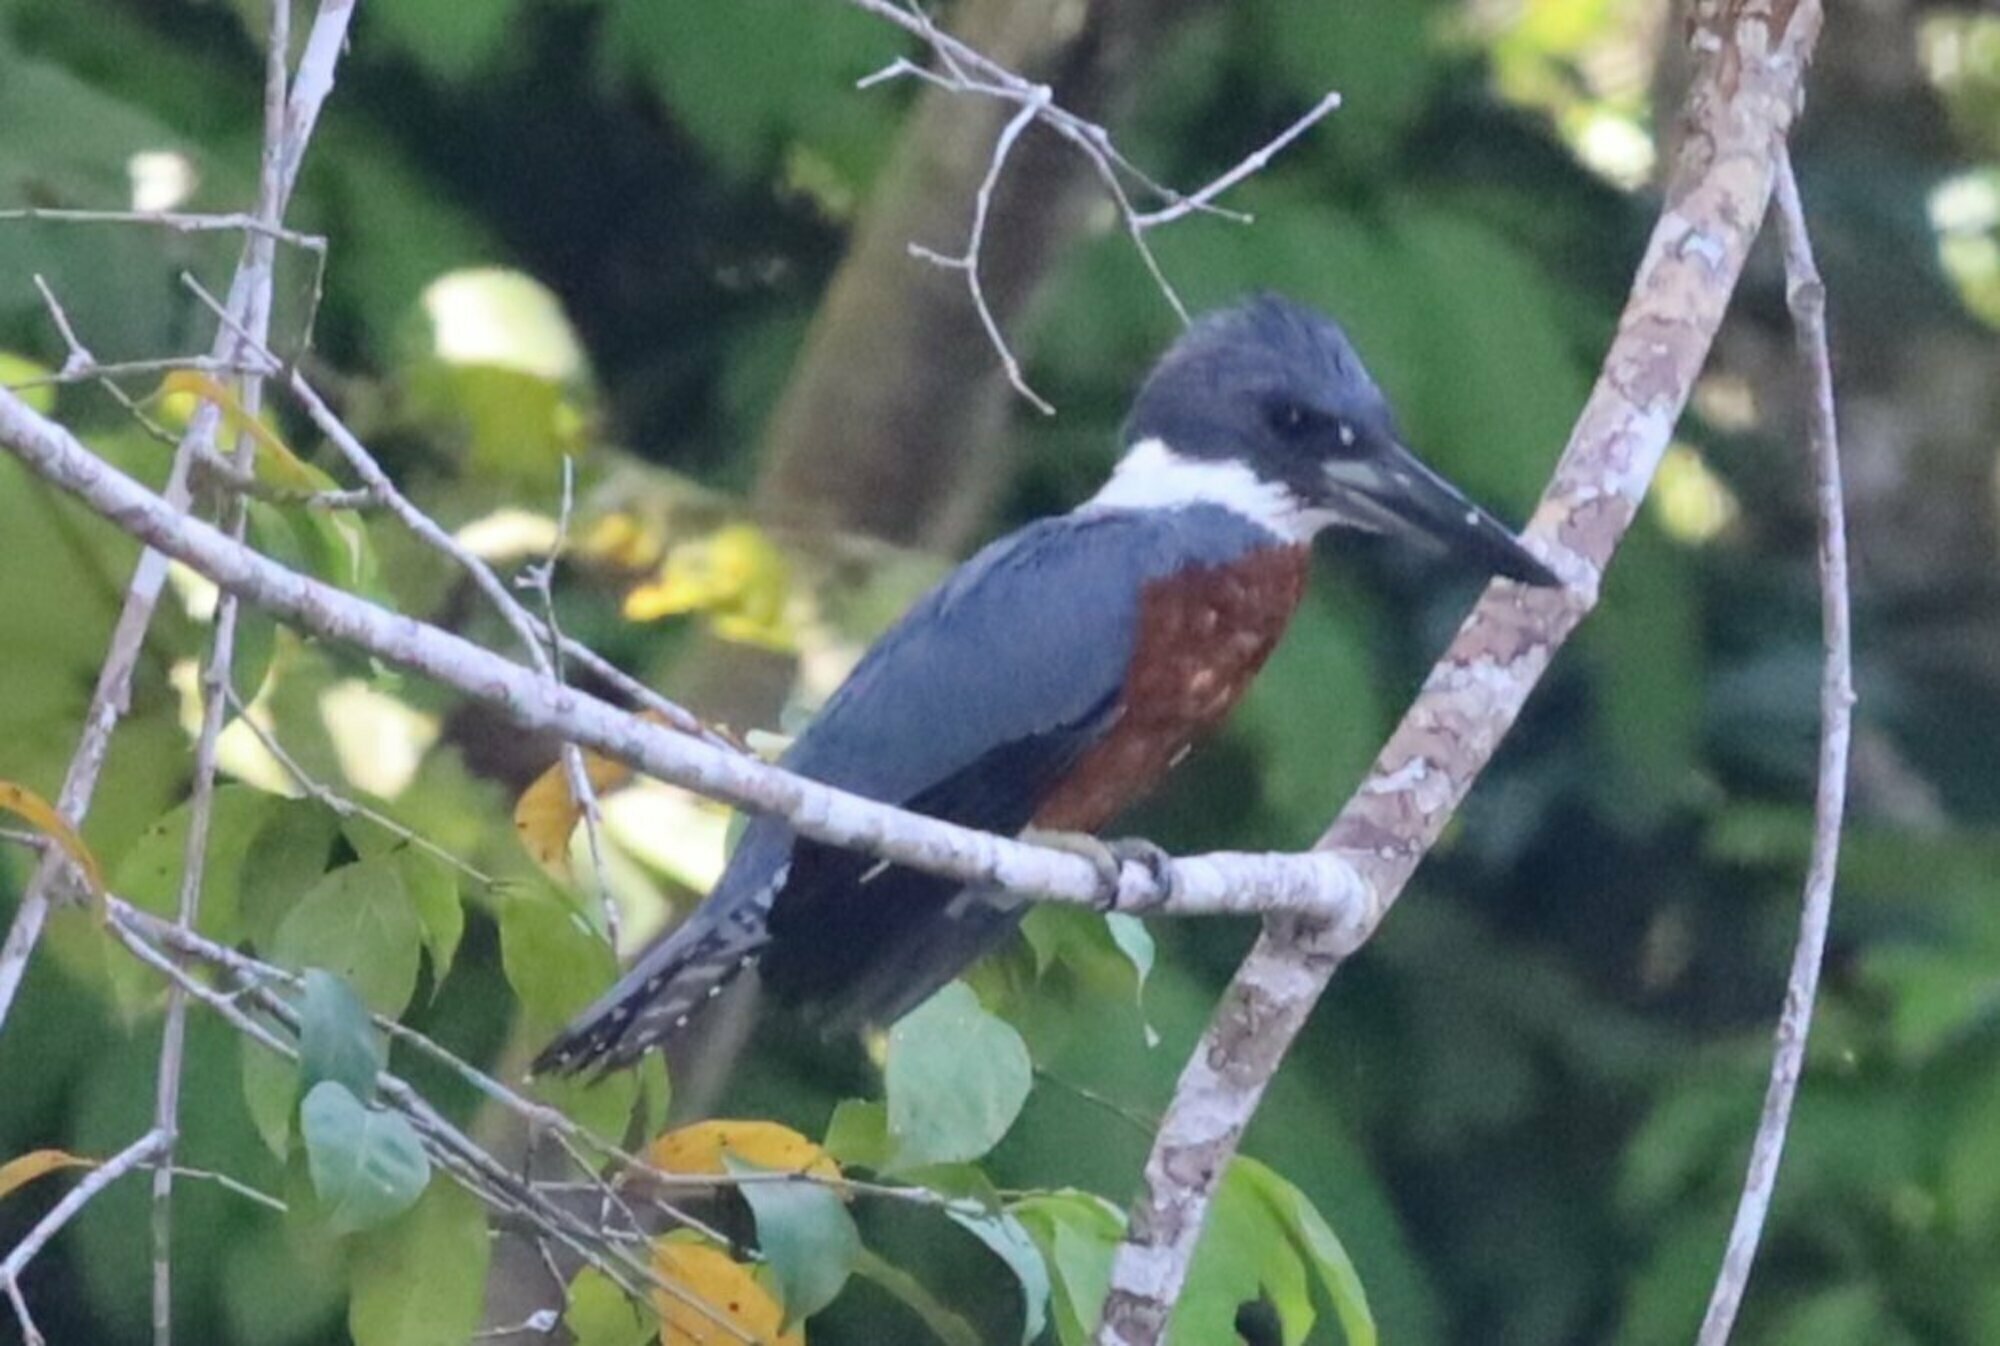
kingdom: Animalia
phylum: Chordata
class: Aves
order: Coraciiformes
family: Alcedinidae
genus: Megaceryle
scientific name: Megaceryle torquata
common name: Ringed kingfisher
